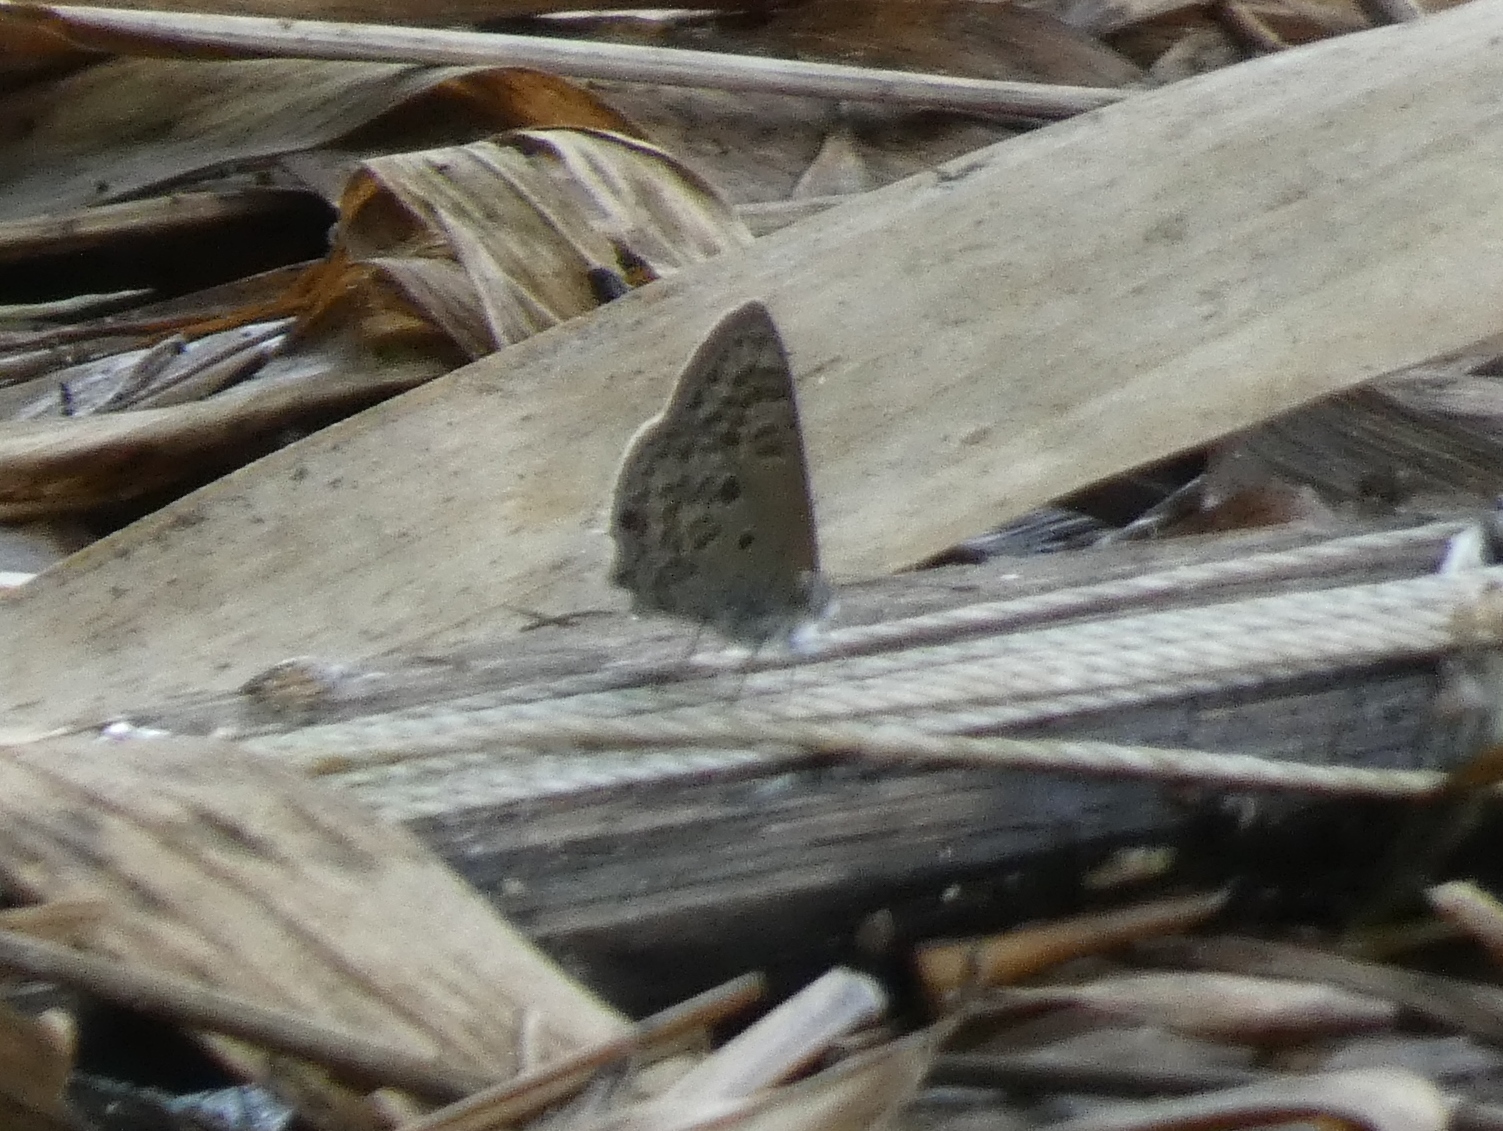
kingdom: Animalia
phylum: Arthropoda
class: Insecta
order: Lepidoptera
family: Lycaenidae
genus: Anthene
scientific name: Anthene princeps
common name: Lebombo hairtail
